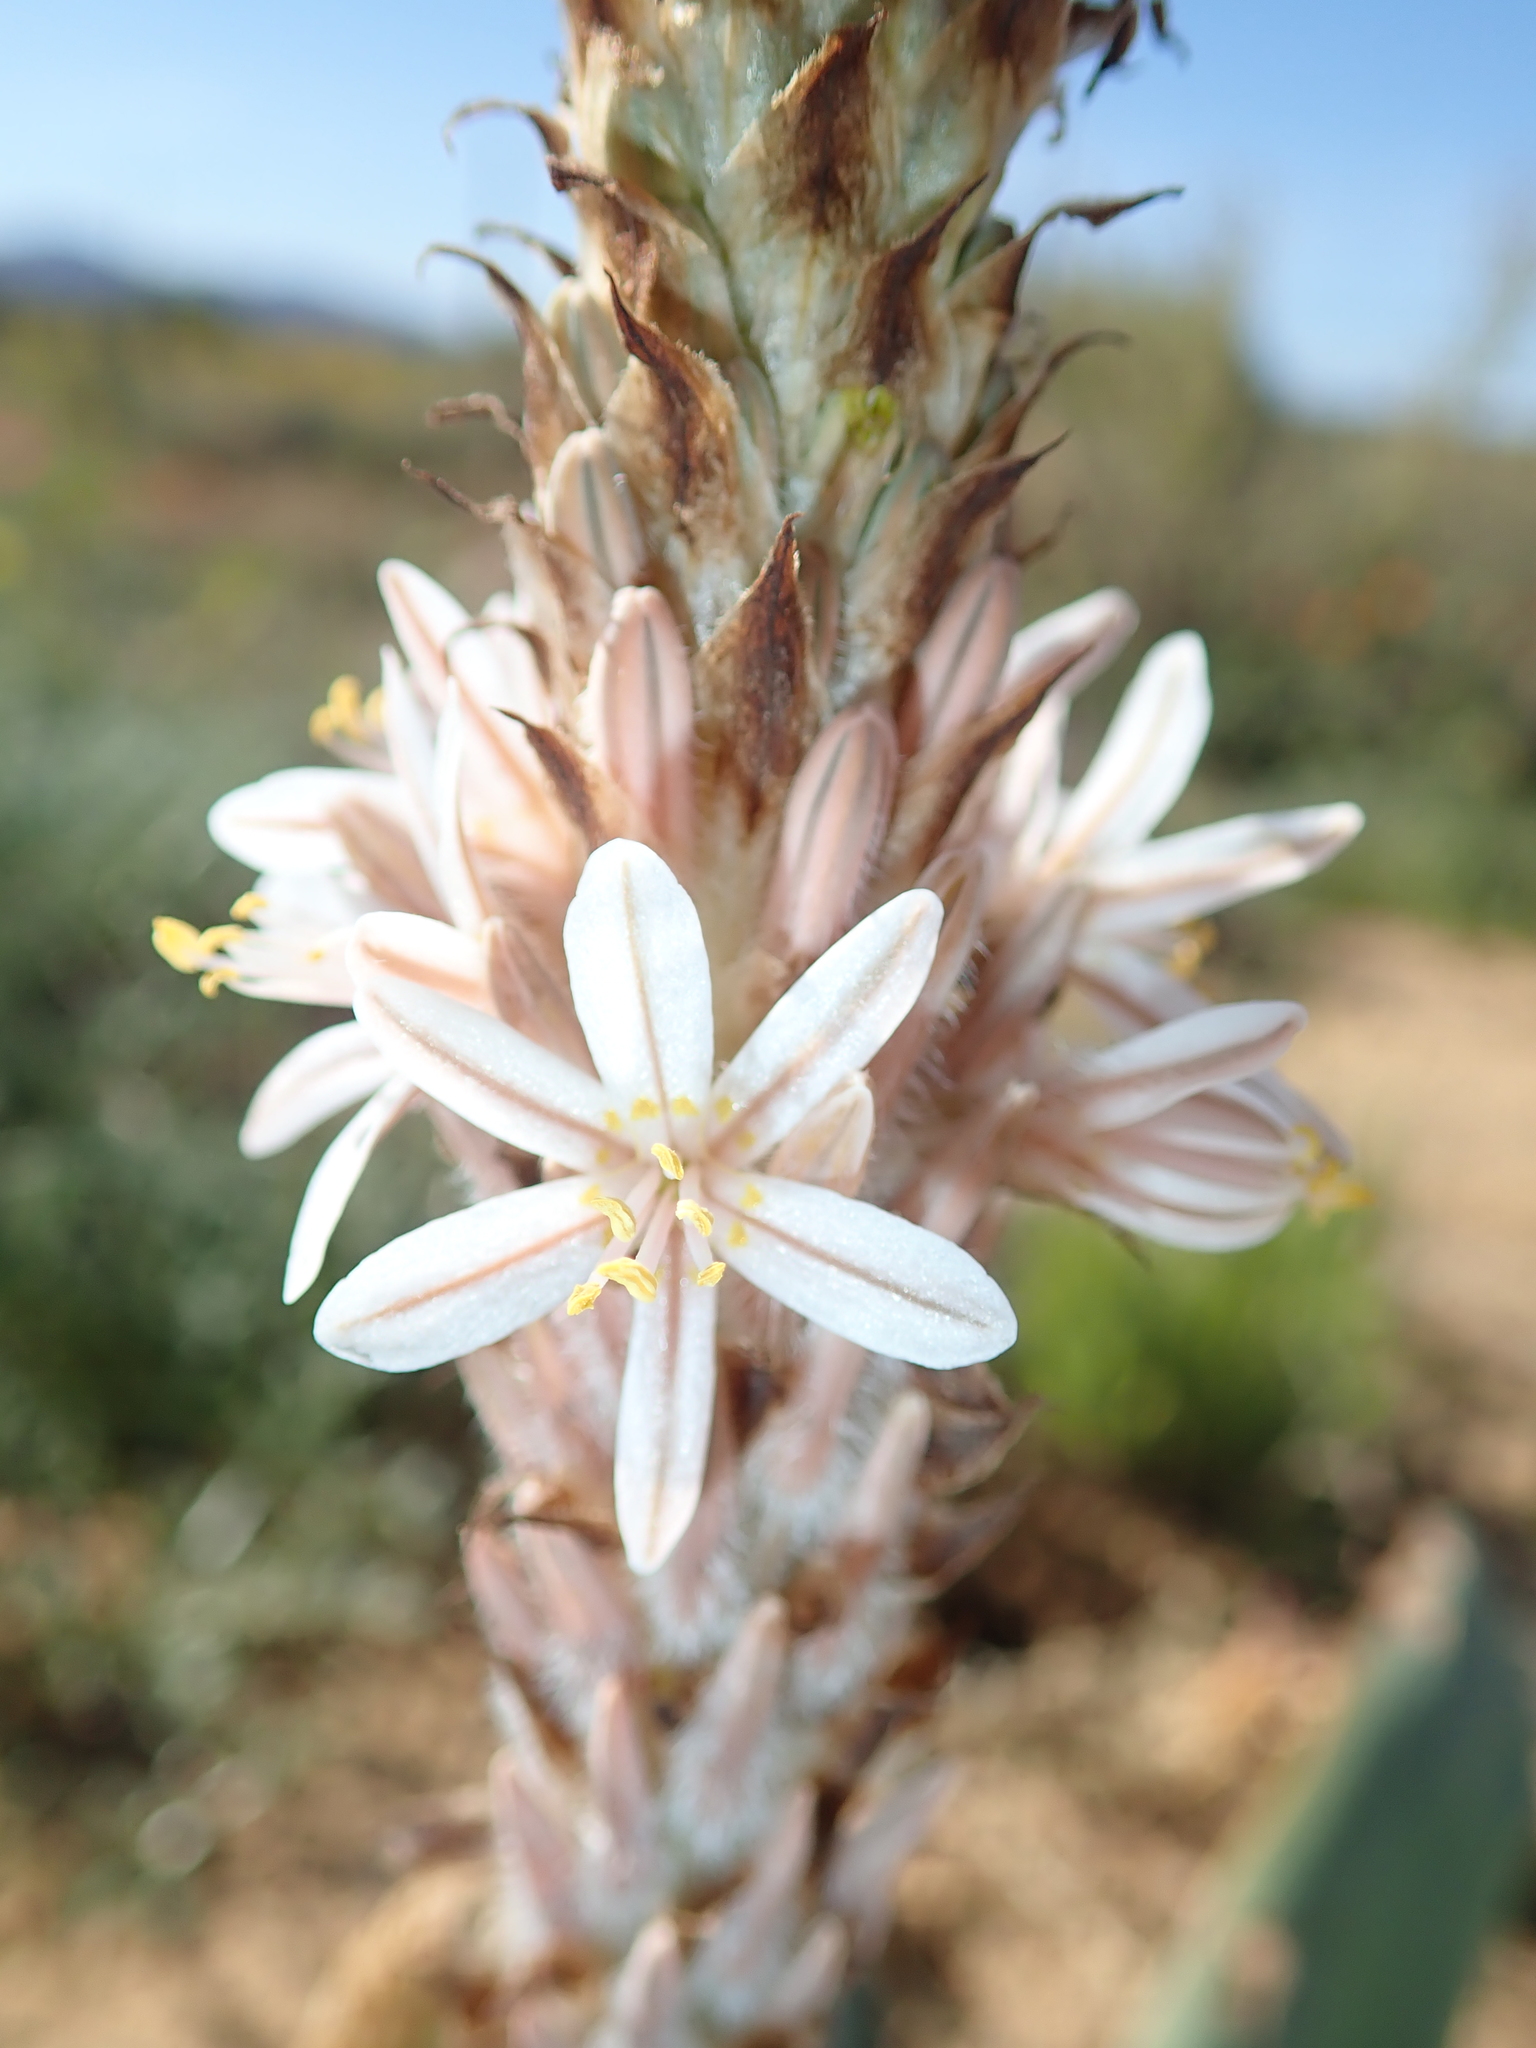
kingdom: Plantae
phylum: Tracheophyta
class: Liliopsida
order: Asparagales
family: Asphodelaceae
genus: Trachyandra
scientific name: Trachyandra falcata
